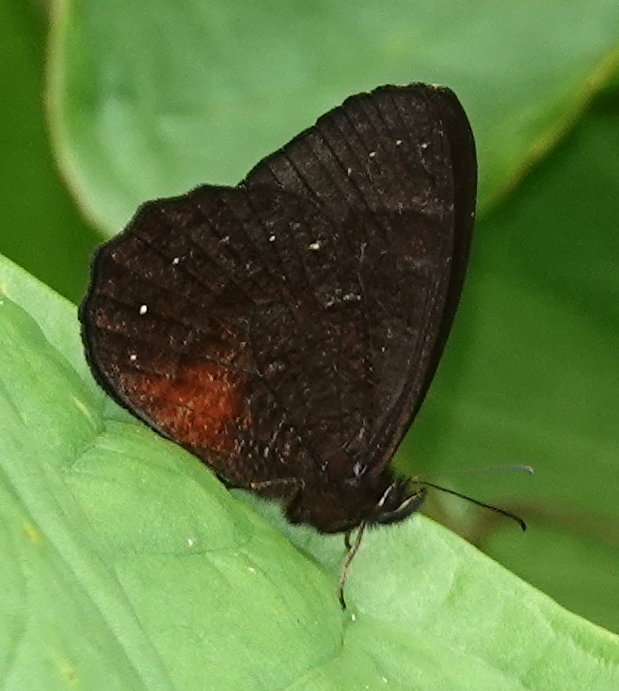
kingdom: Animalia
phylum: Arthropoda
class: Insecta
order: Lepidoptera
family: Nymphalidae
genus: Pedaliodes
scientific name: Pedaliodes
